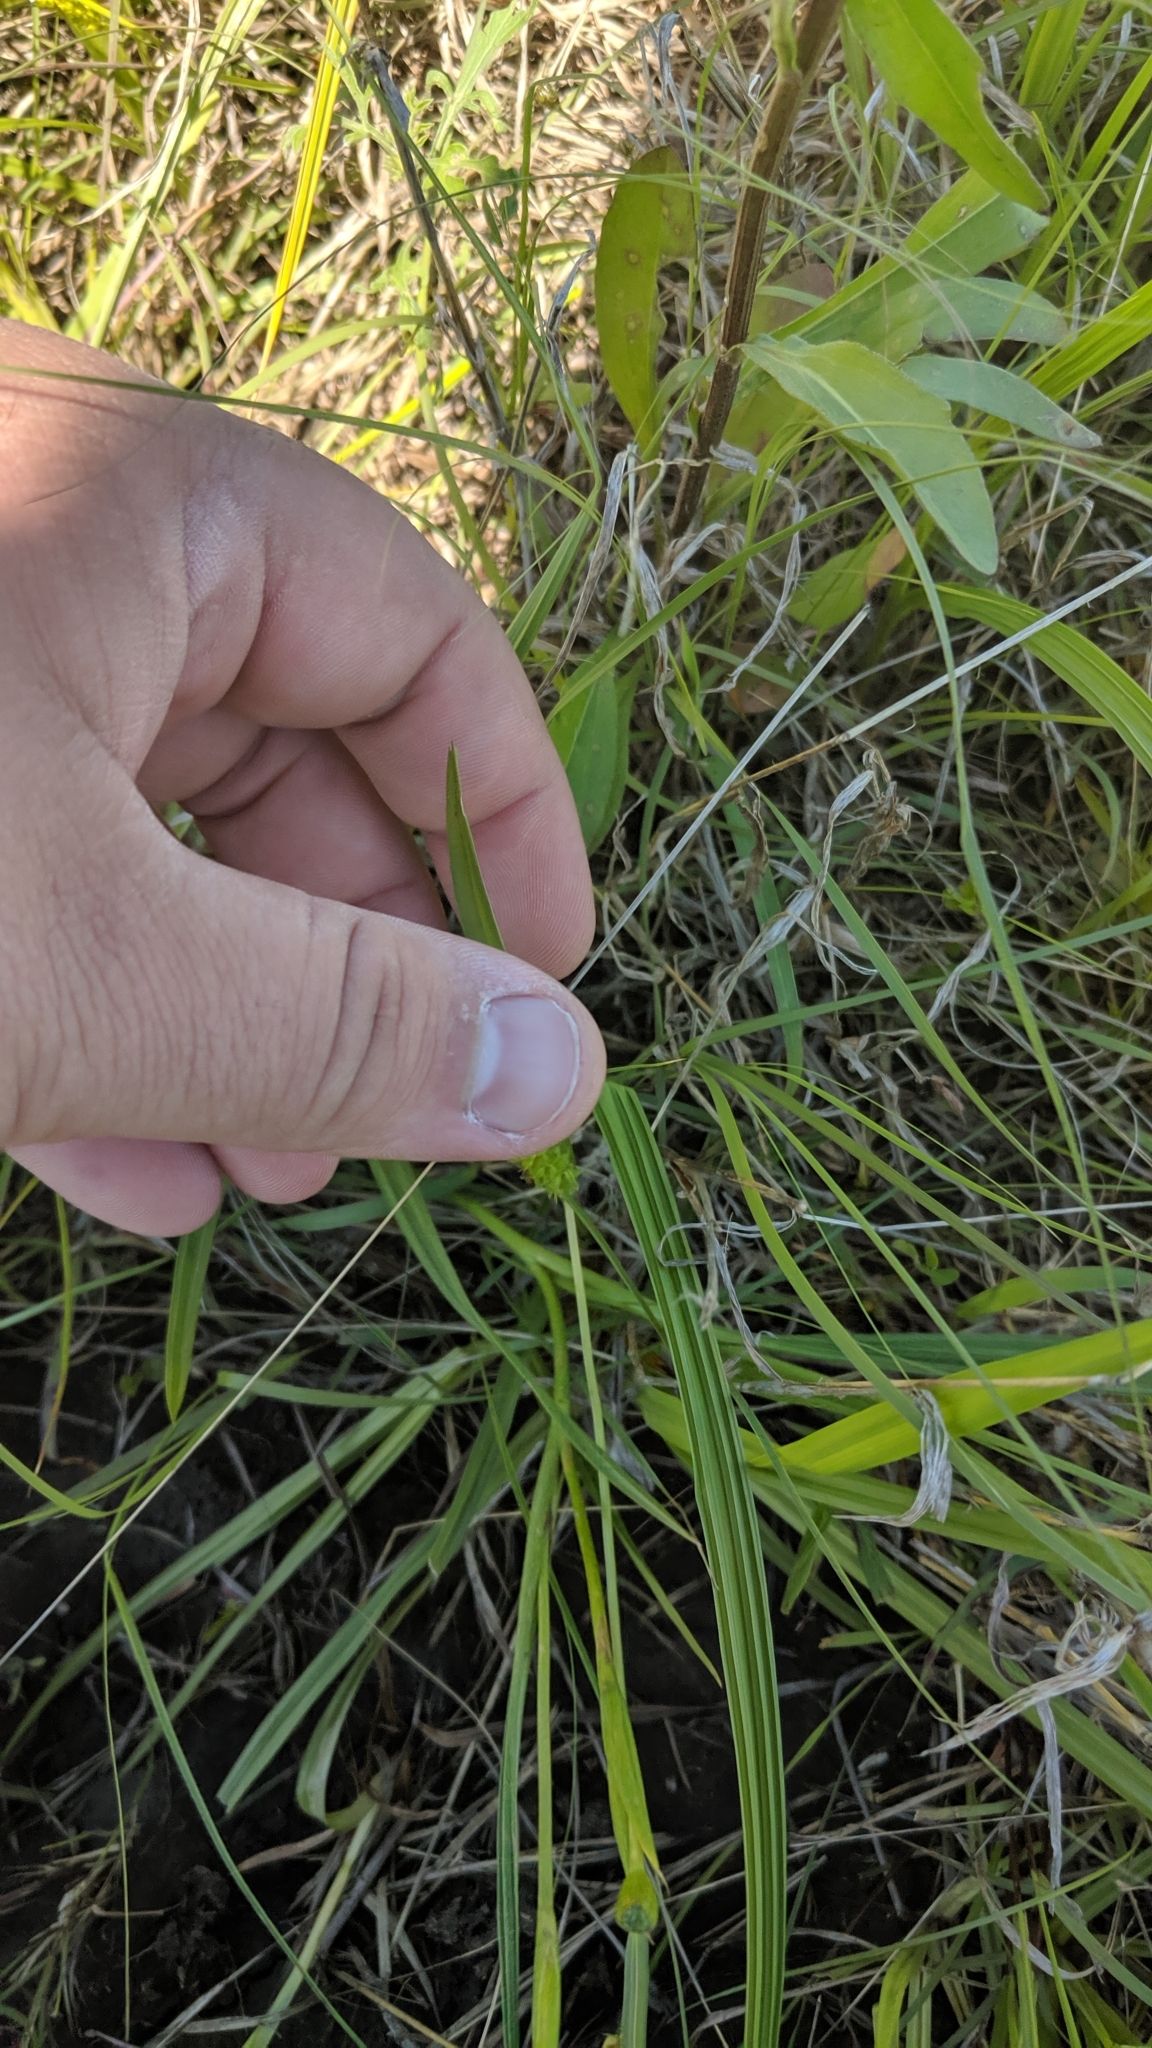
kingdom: Plantae
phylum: Tracheophyta
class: Liliopsida
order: Asparagales
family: Iridaceae
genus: Nemastylis
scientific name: Nemastylis geminiflora
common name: Prairie celestial
